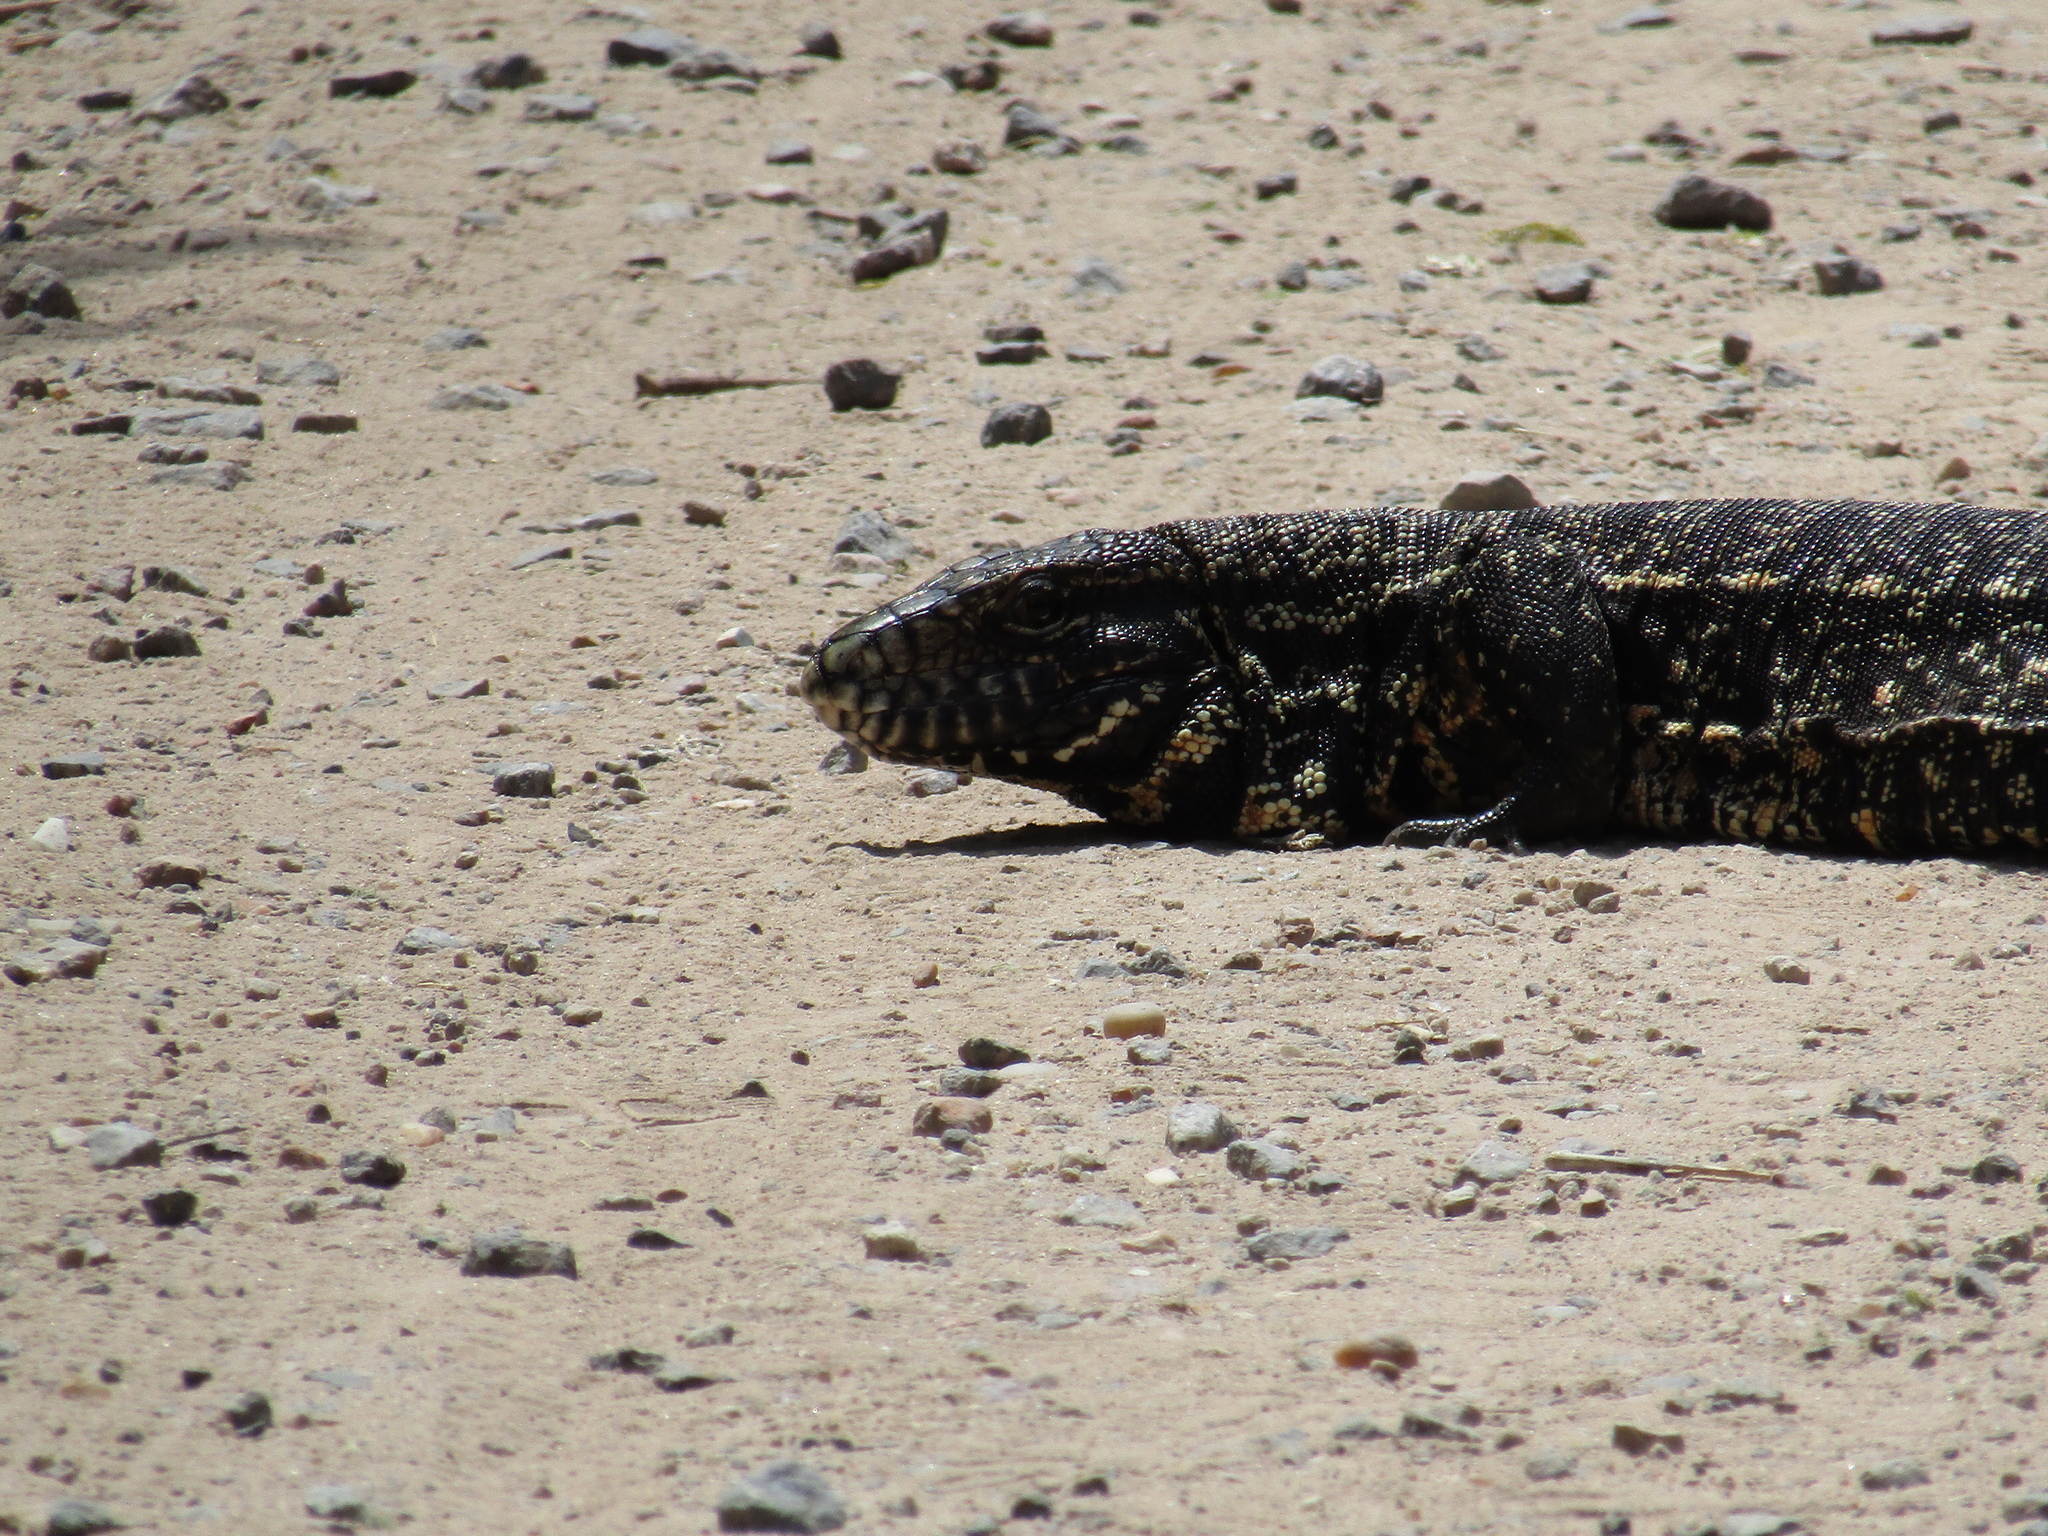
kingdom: Animalia
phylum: Chordata
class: Squamata
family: Teiidae
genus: Salvator
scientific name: Salvator merianae
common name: Argentine black and white tegu
